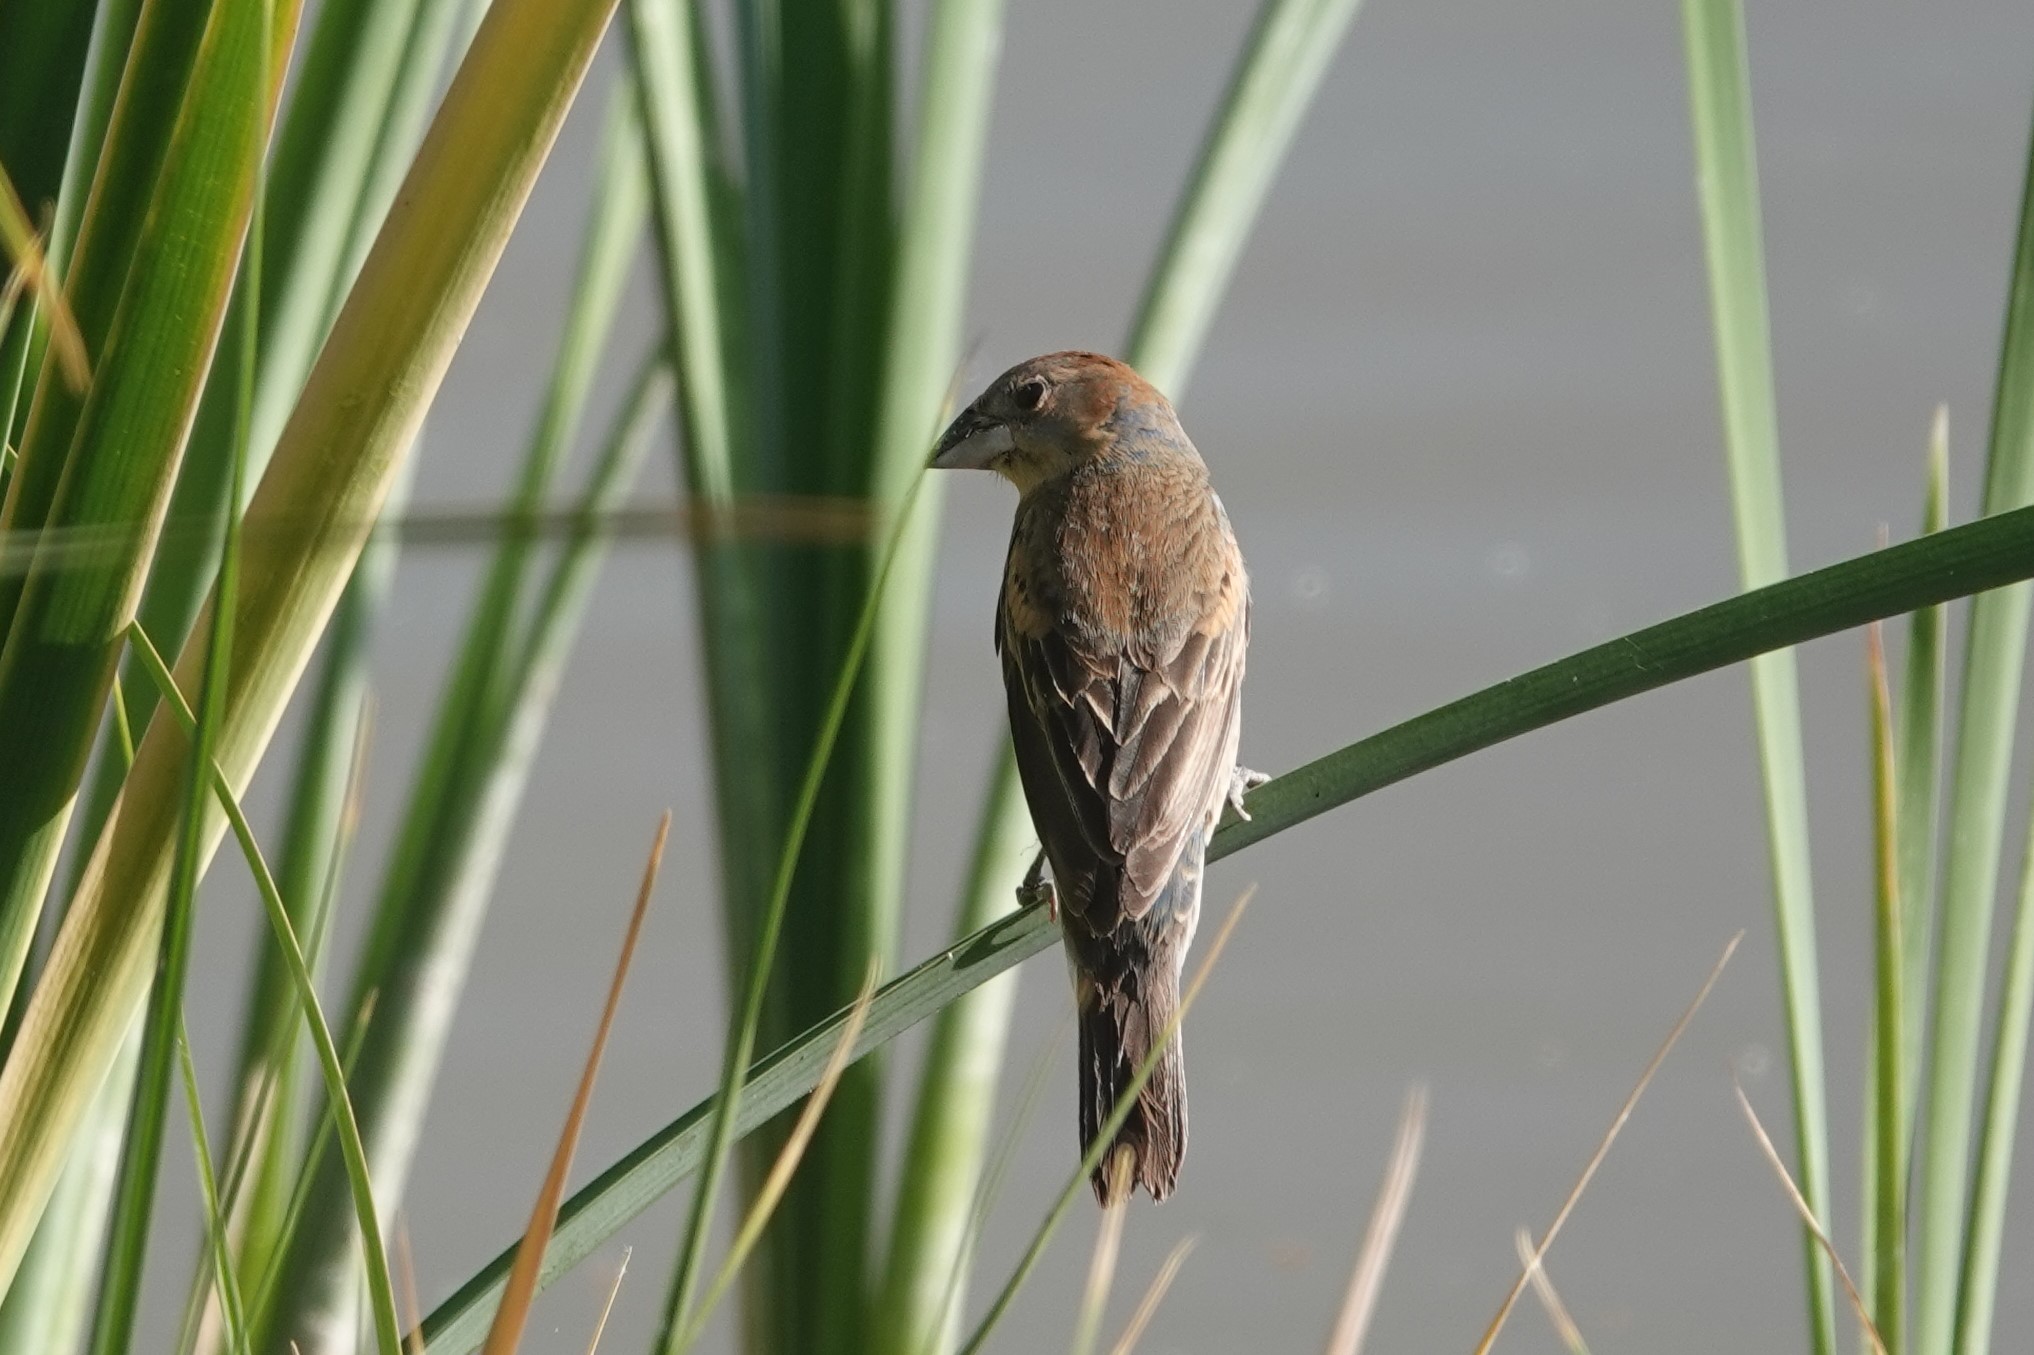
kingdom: Animalia
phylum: Chordata
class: Aves
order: Passeriformes
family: Cardinalidae
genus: Passerina
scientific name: Passerina caerulea
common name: Blue grosbeak
